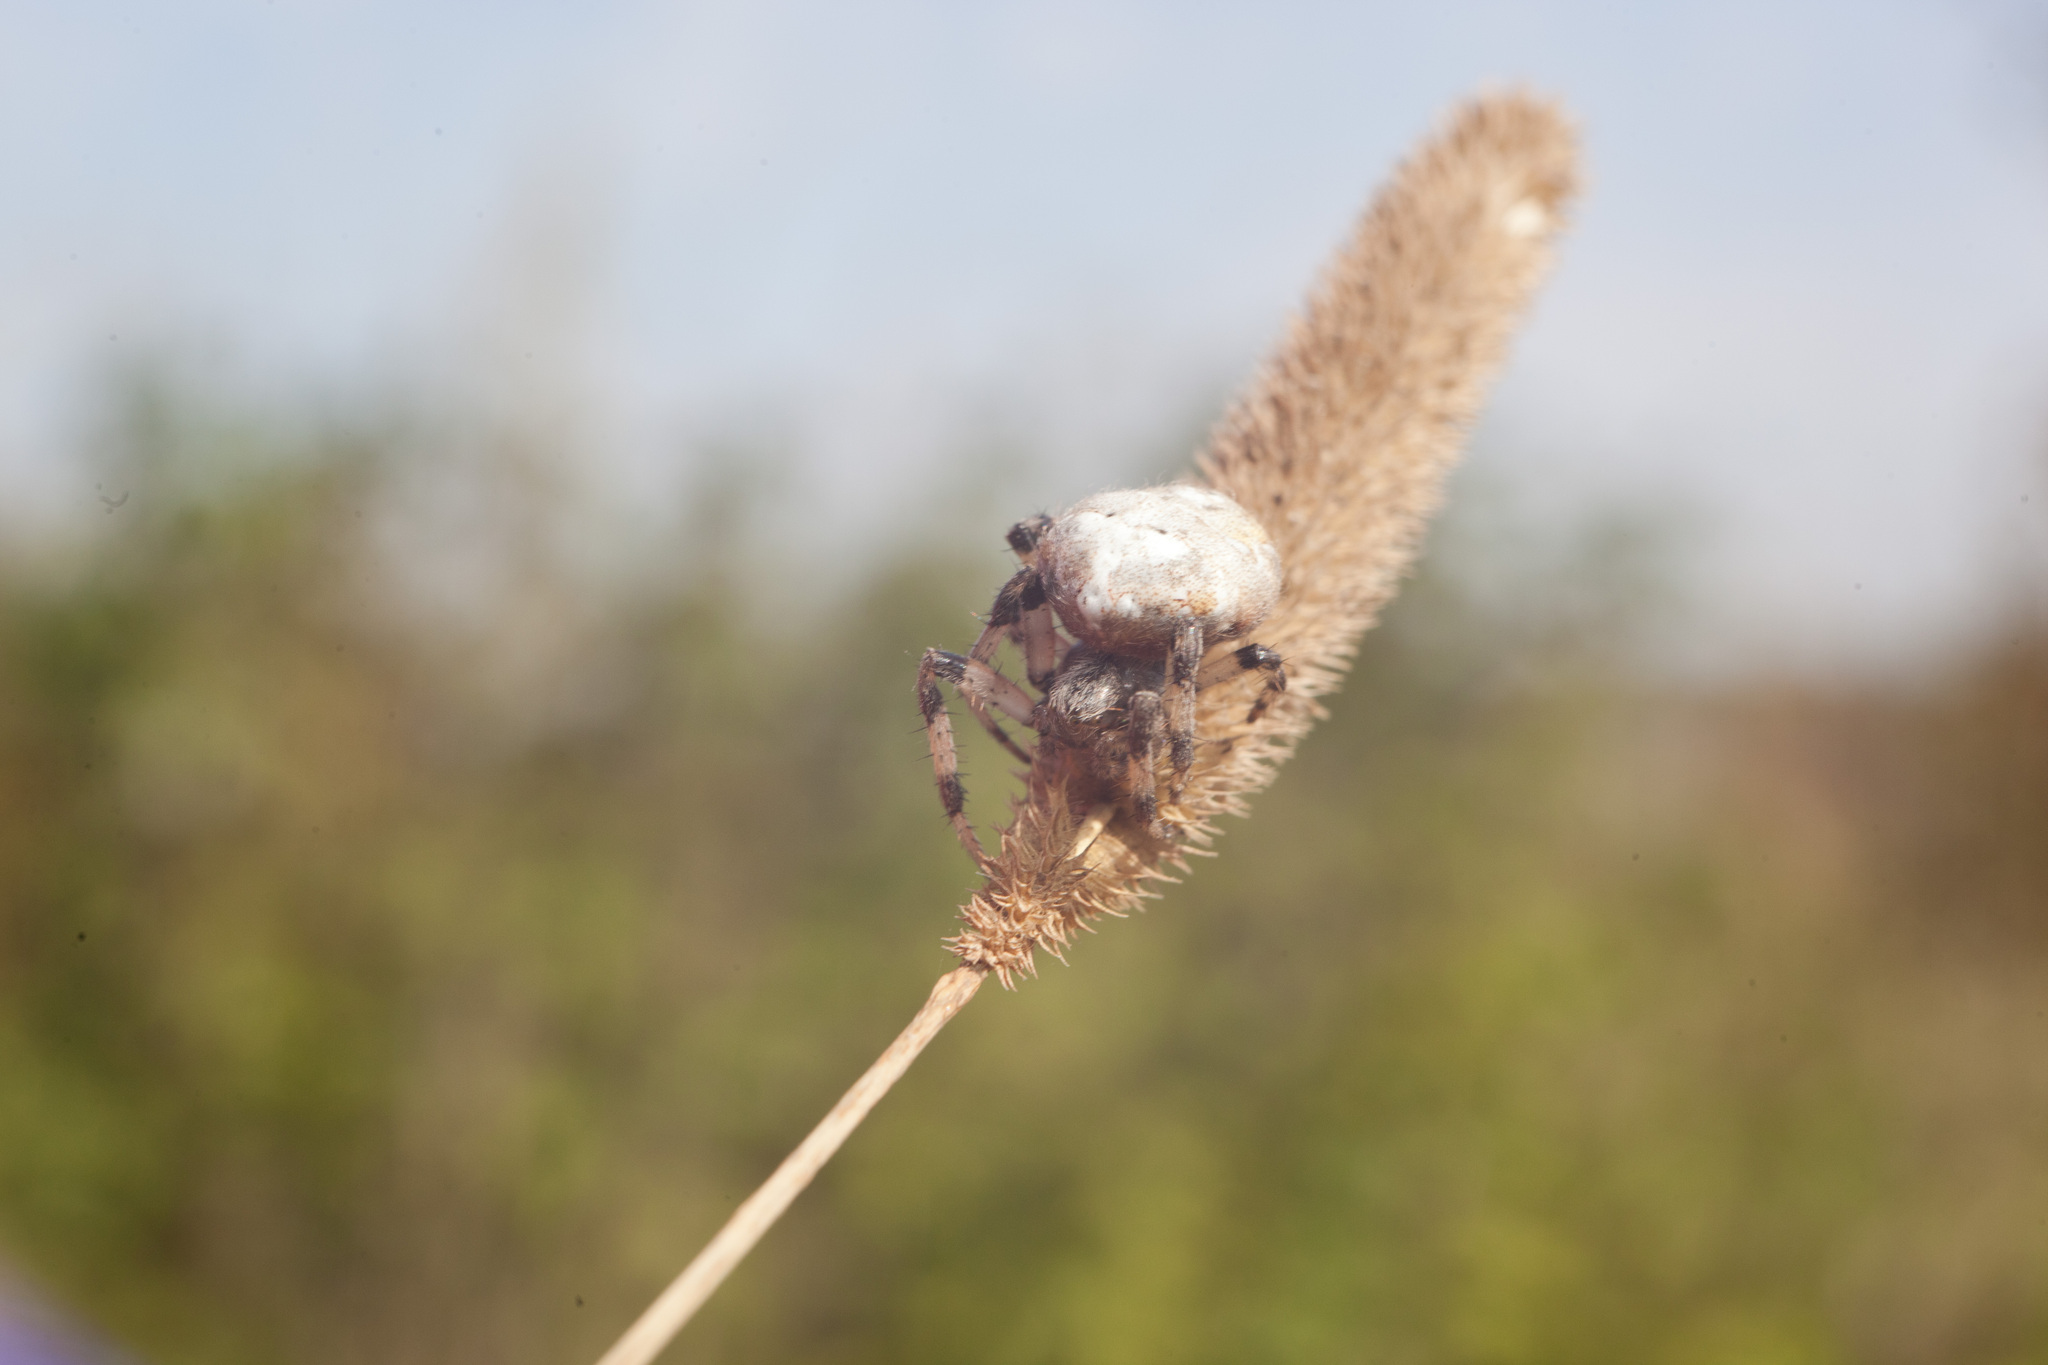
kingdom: Animalia
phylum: Arthropoda
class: Arachnida
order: Araneae
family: Araneidae
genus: Araneus
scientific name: Araneus quadratus
